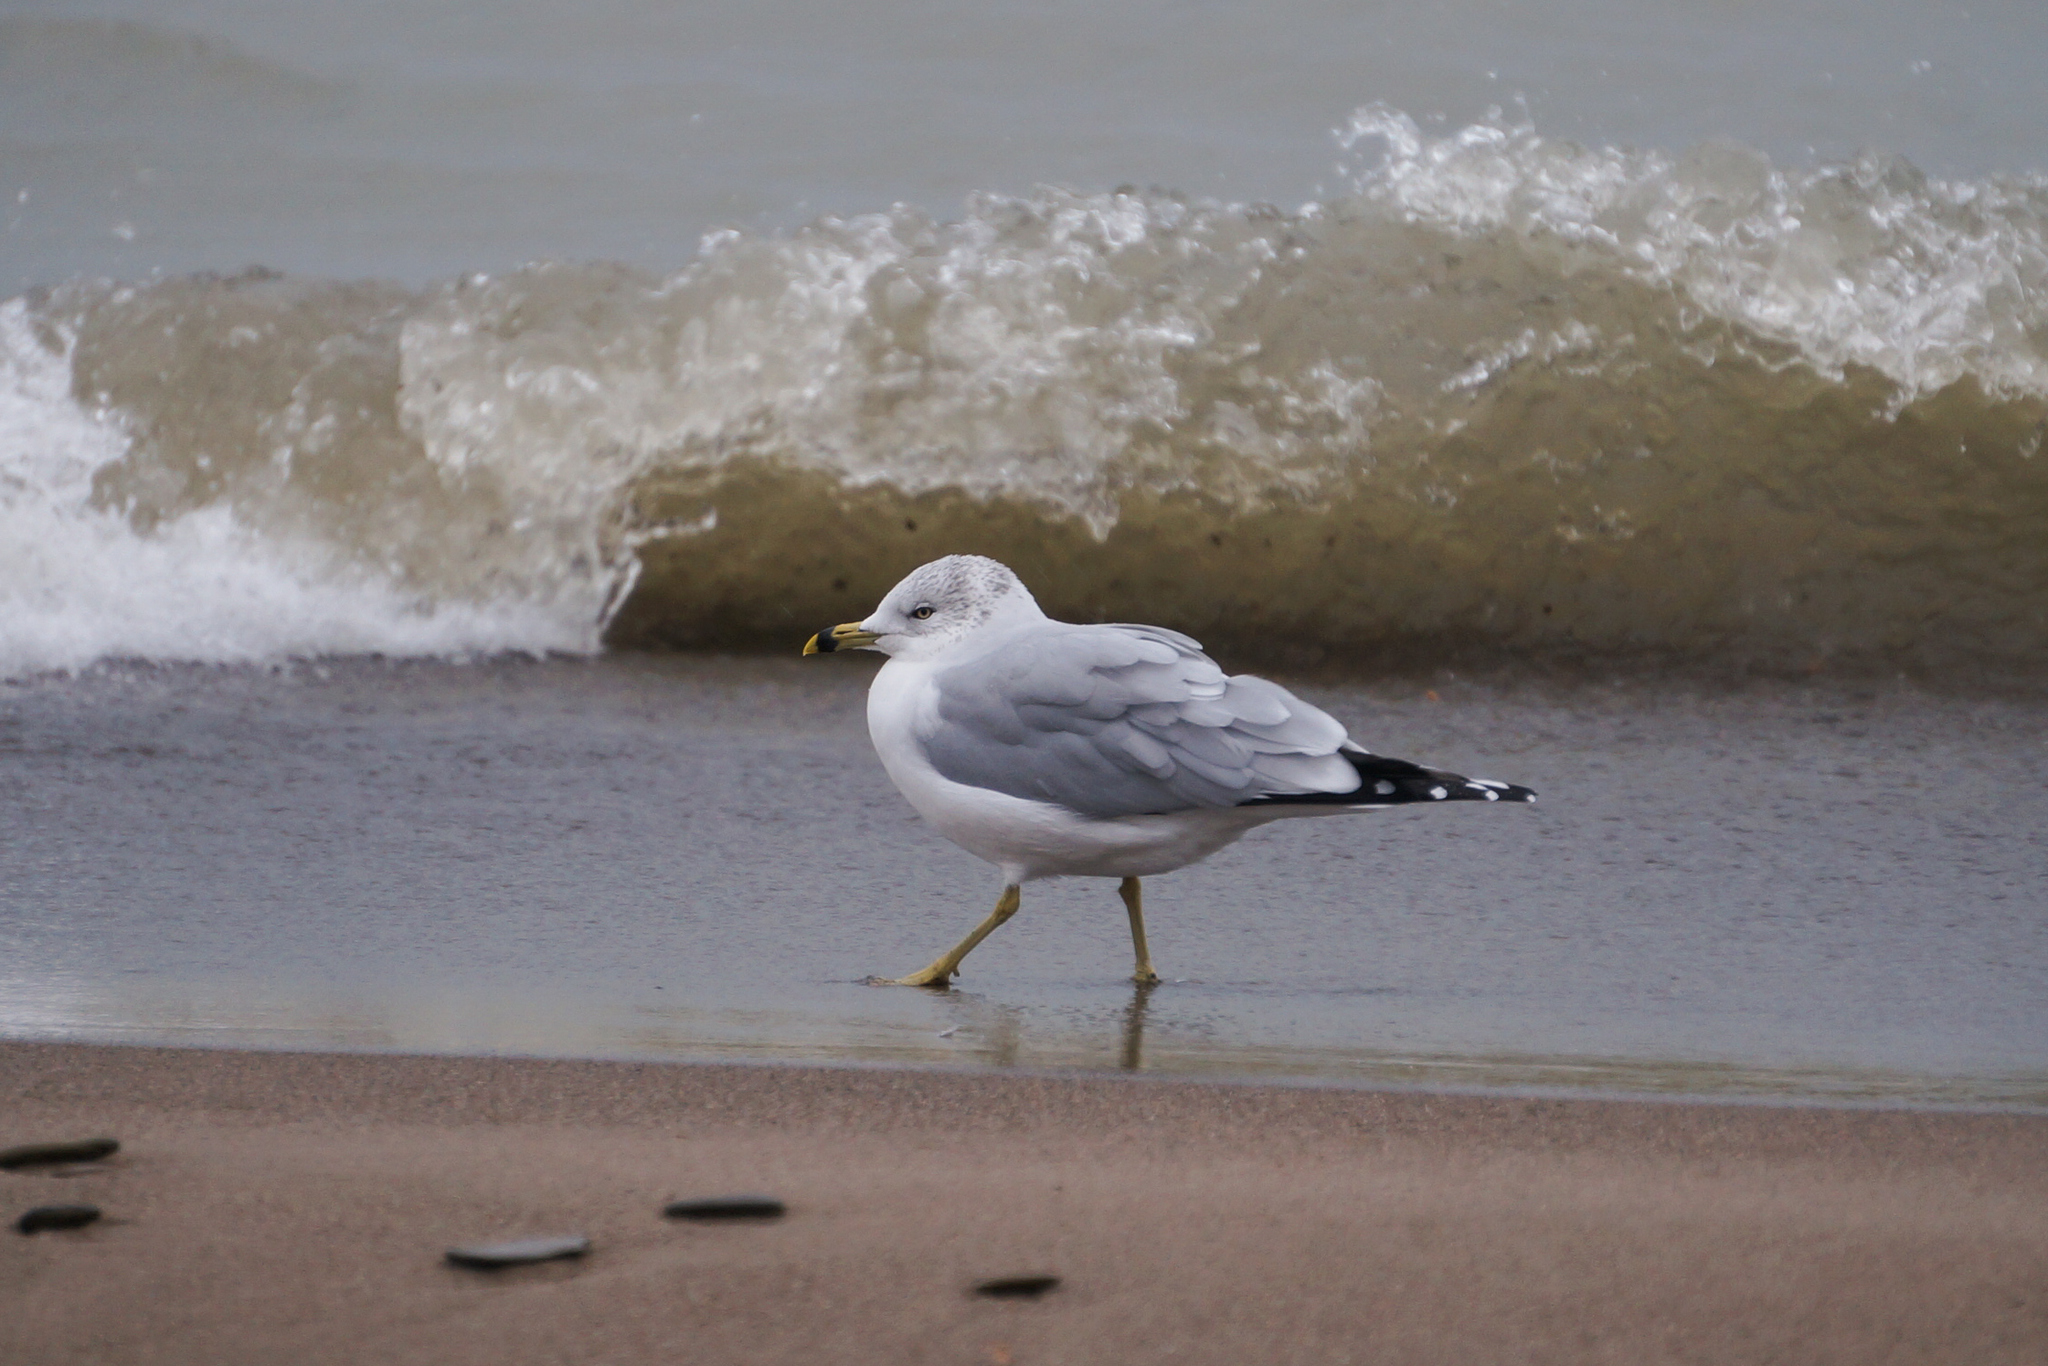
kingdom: Animalia
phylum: Chordata
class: Aves
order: Charadriiformes
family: Laridae
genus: Larus
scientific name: Larus delawarensis
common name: Ring-billed gull
